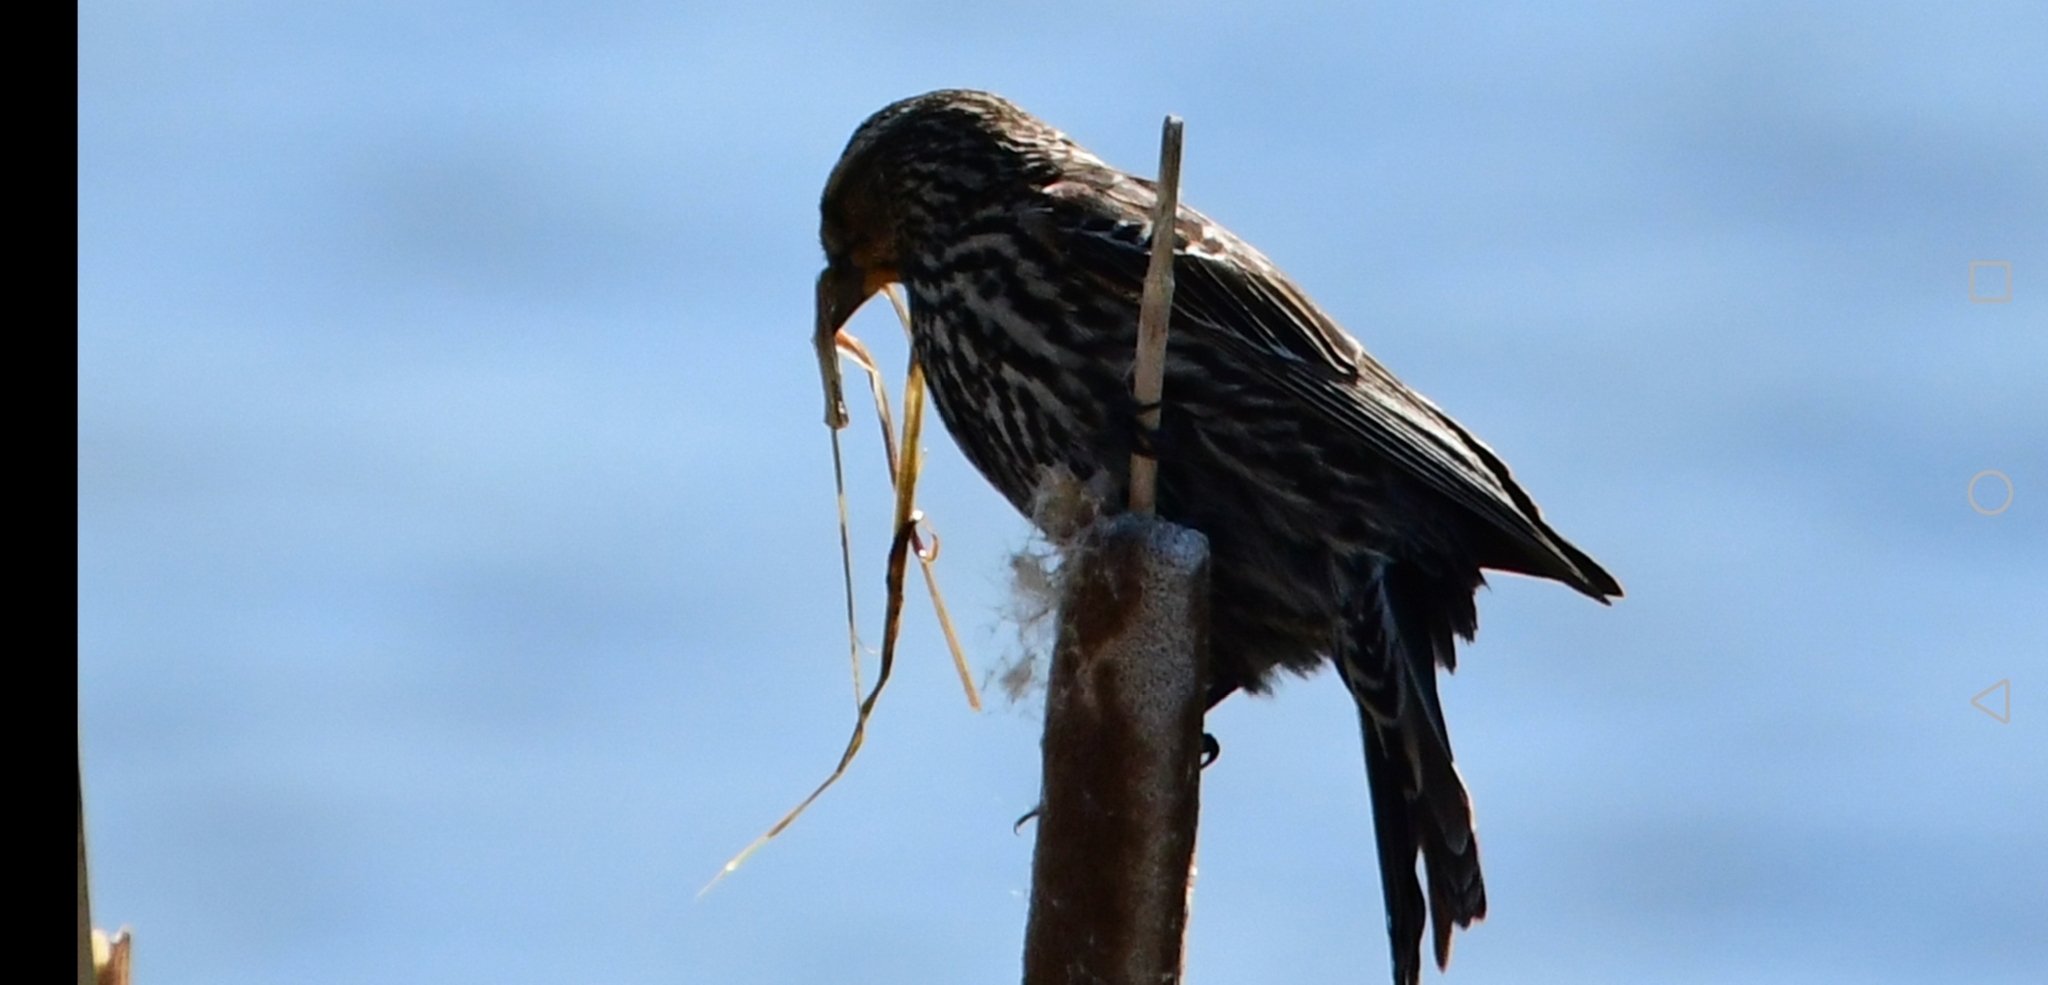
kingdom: Animalia
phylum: Chordata
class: Aves
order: Passeriformes
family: Icteridae
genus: Agelaius
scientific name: Agelaius phoeniceus
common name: Red-winged blackbird
